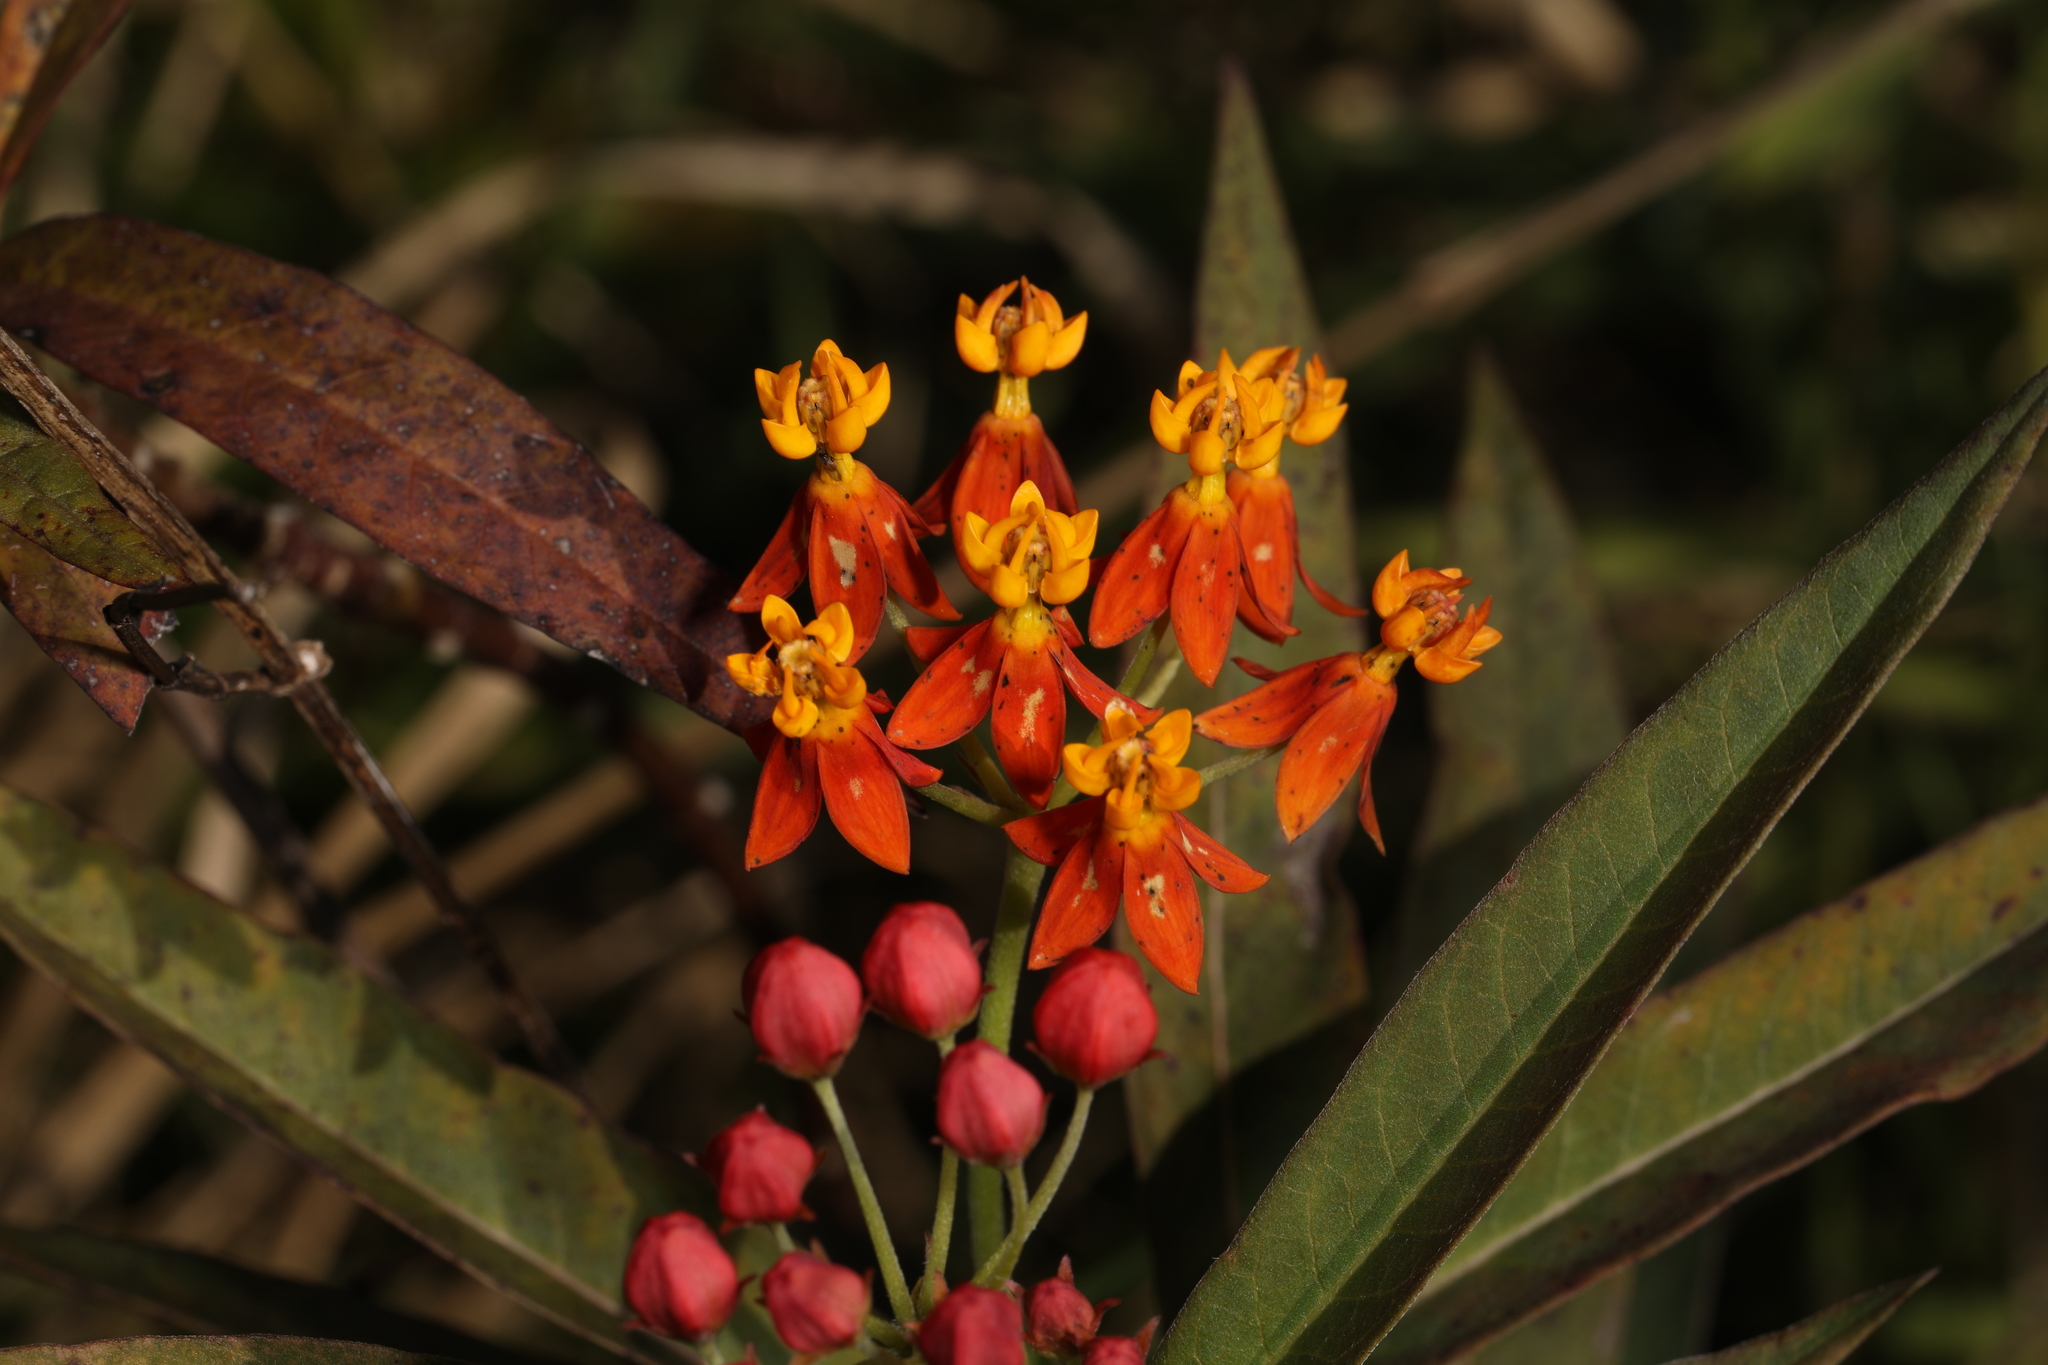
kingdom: Plantae
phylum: Tracheophyta
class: Magnoliopsida
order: Gentianales
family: Apocynaceae
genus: Asclepias
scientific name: Asclepias curassavica
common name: Bloodflower
